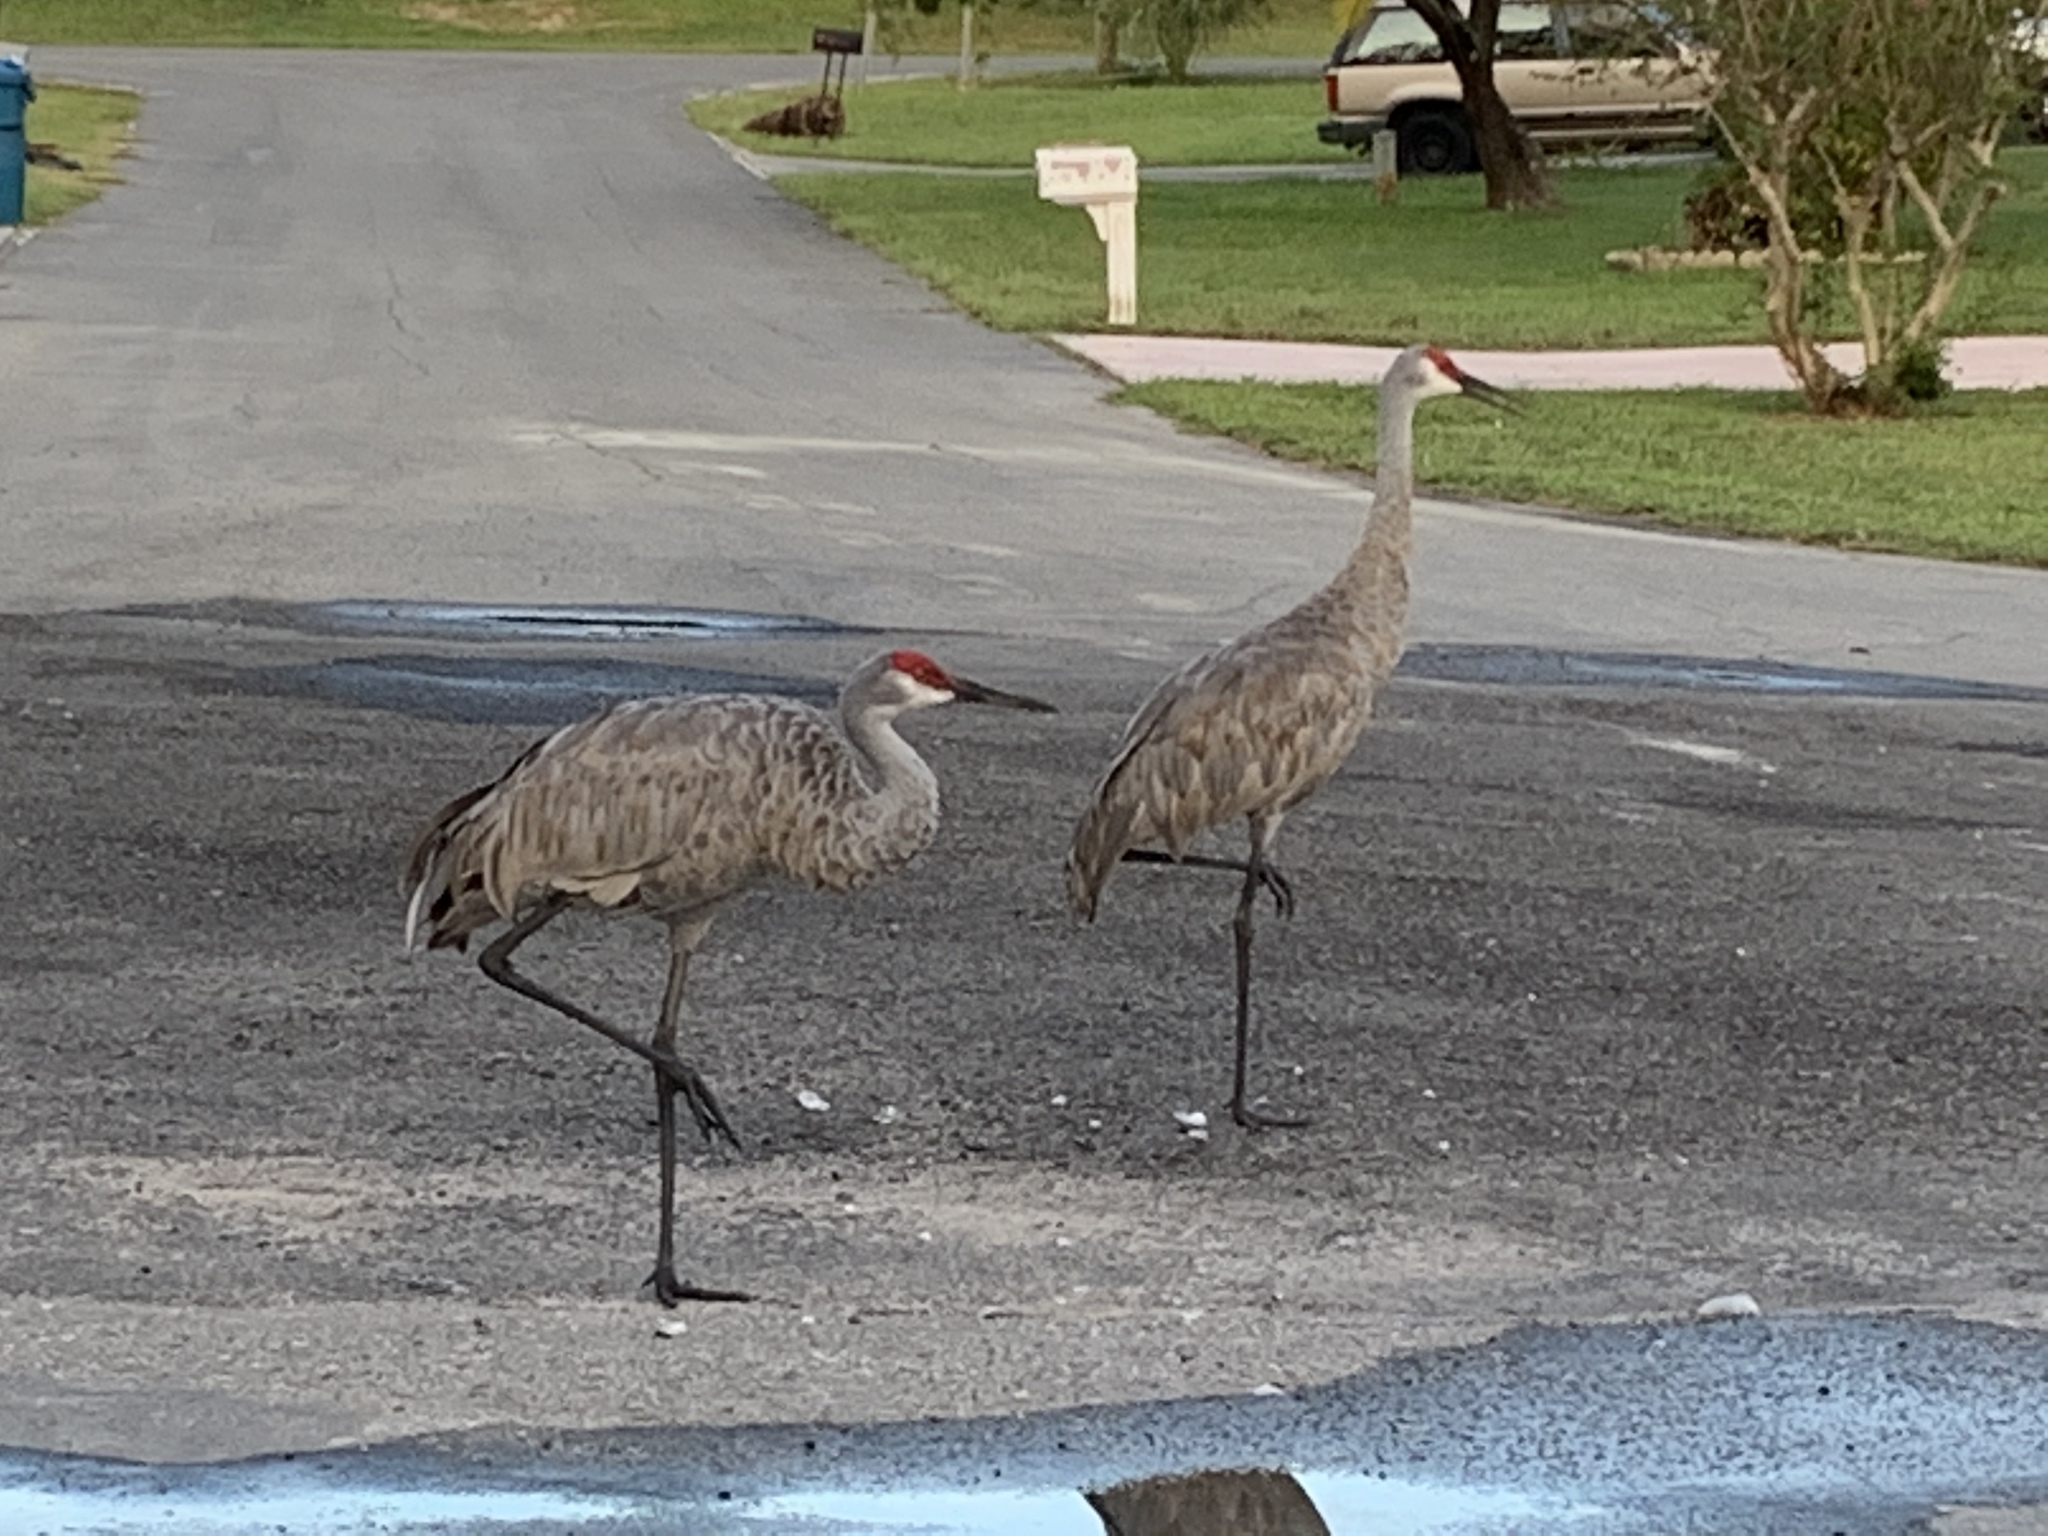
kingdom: Animalia
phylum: Chordata
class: Aves
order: Gruiformes
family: Gruidae
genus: Grus
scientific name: Grus canadensis
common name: Sandhill crane
